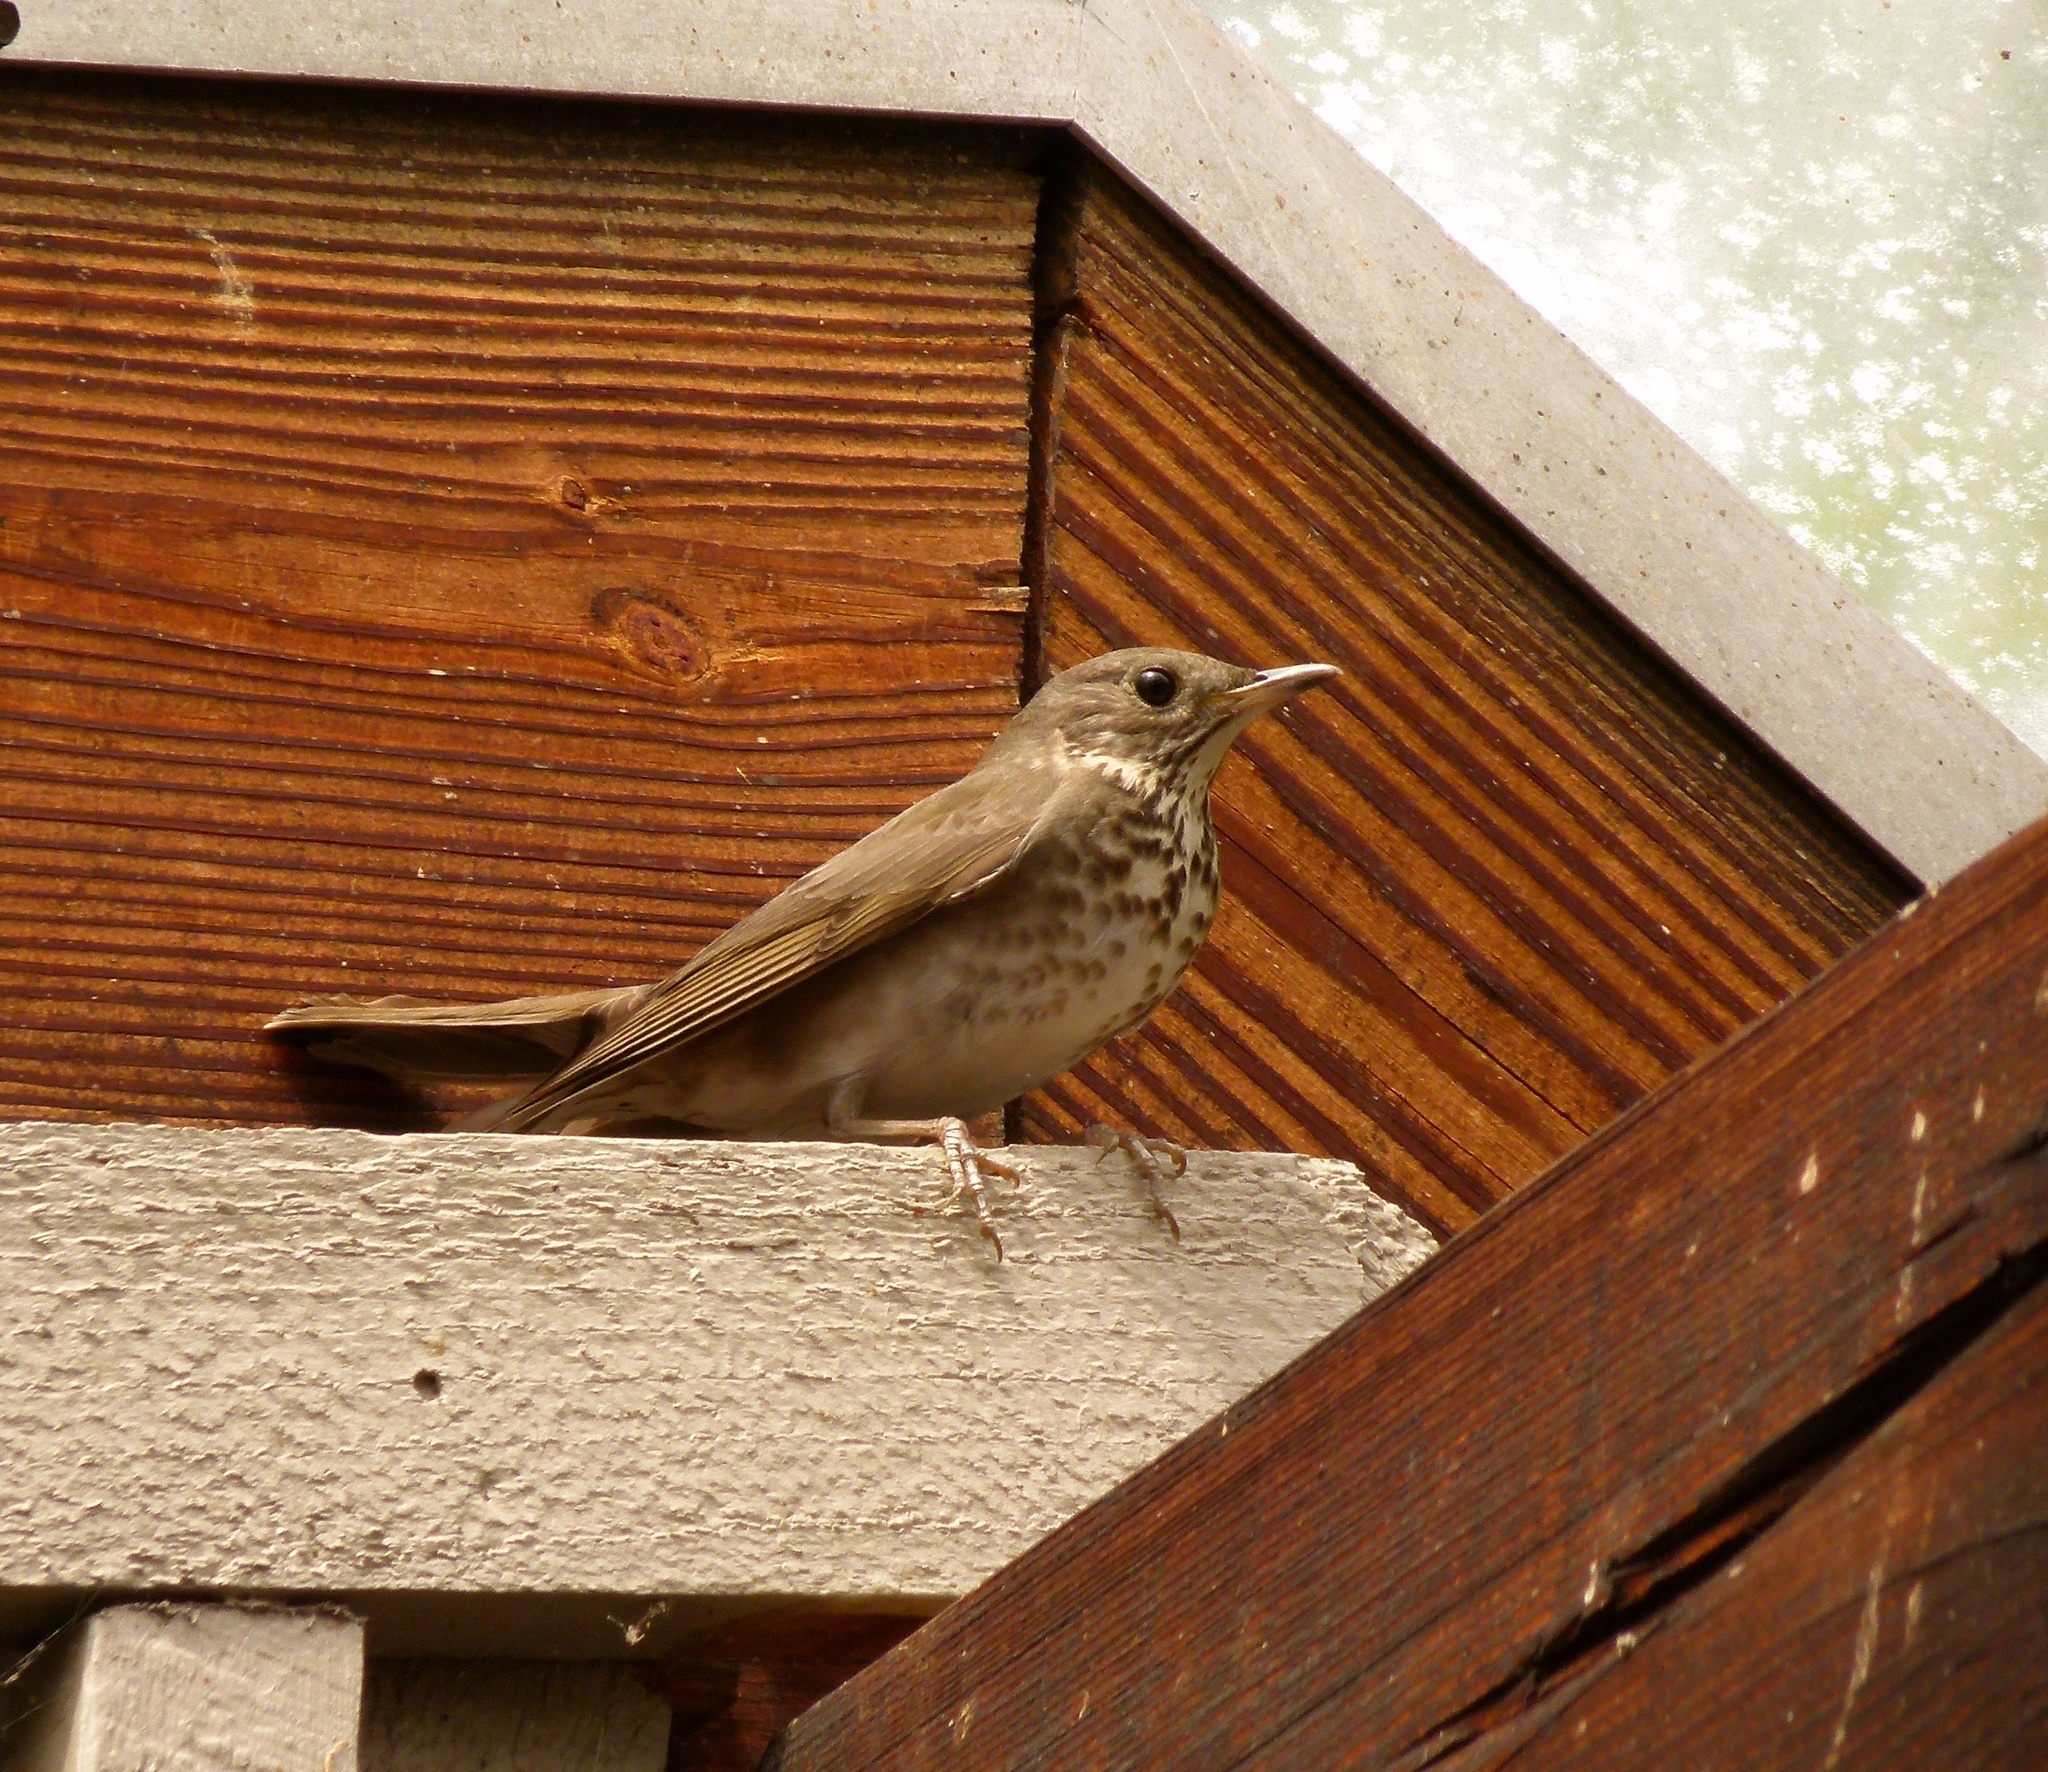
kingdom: Animalia
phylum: Chordata
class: Aves
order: Passeriformes
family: Turdidae
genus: Catharus
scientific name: Catharus minimus
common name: Grey-cheeked thrush
